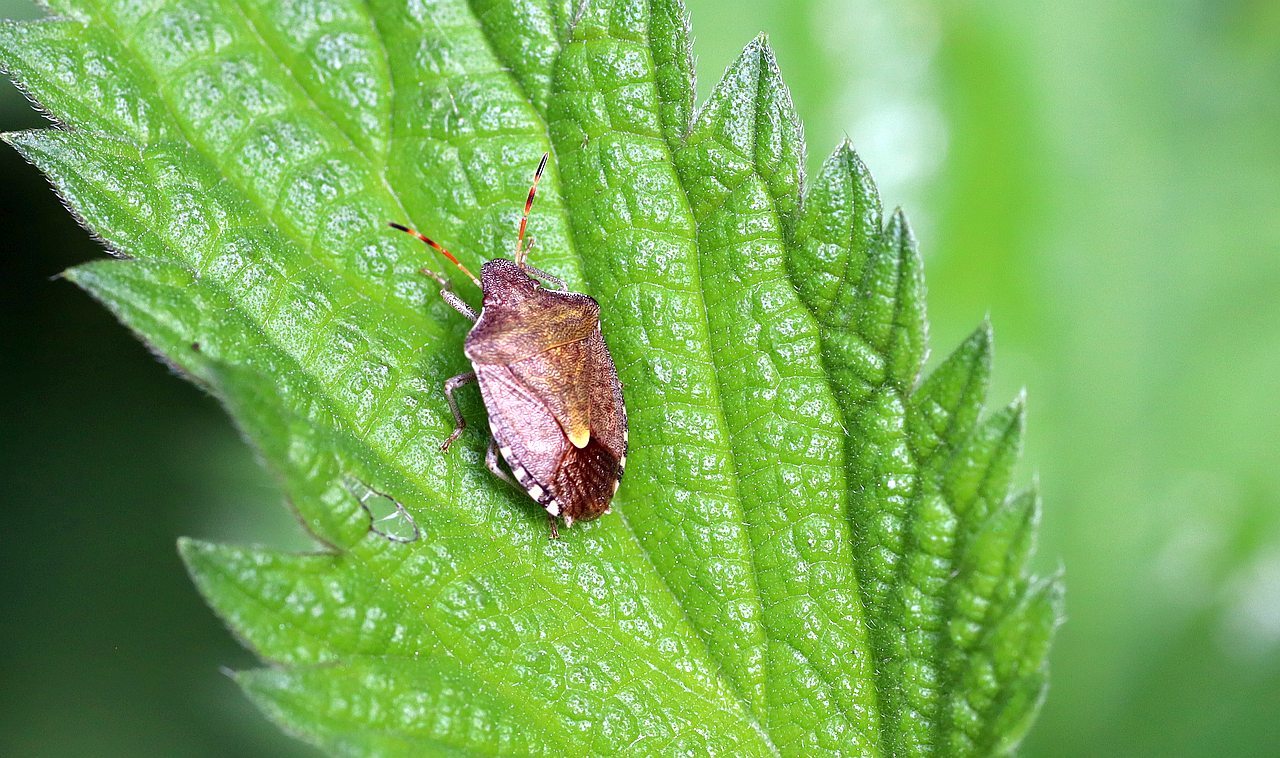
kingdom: Animalia
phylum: Arthropoda
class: Insecta
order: Hemiptera
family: Pentatomidae
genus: Holcostethus
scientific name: Holcostethus strictus
